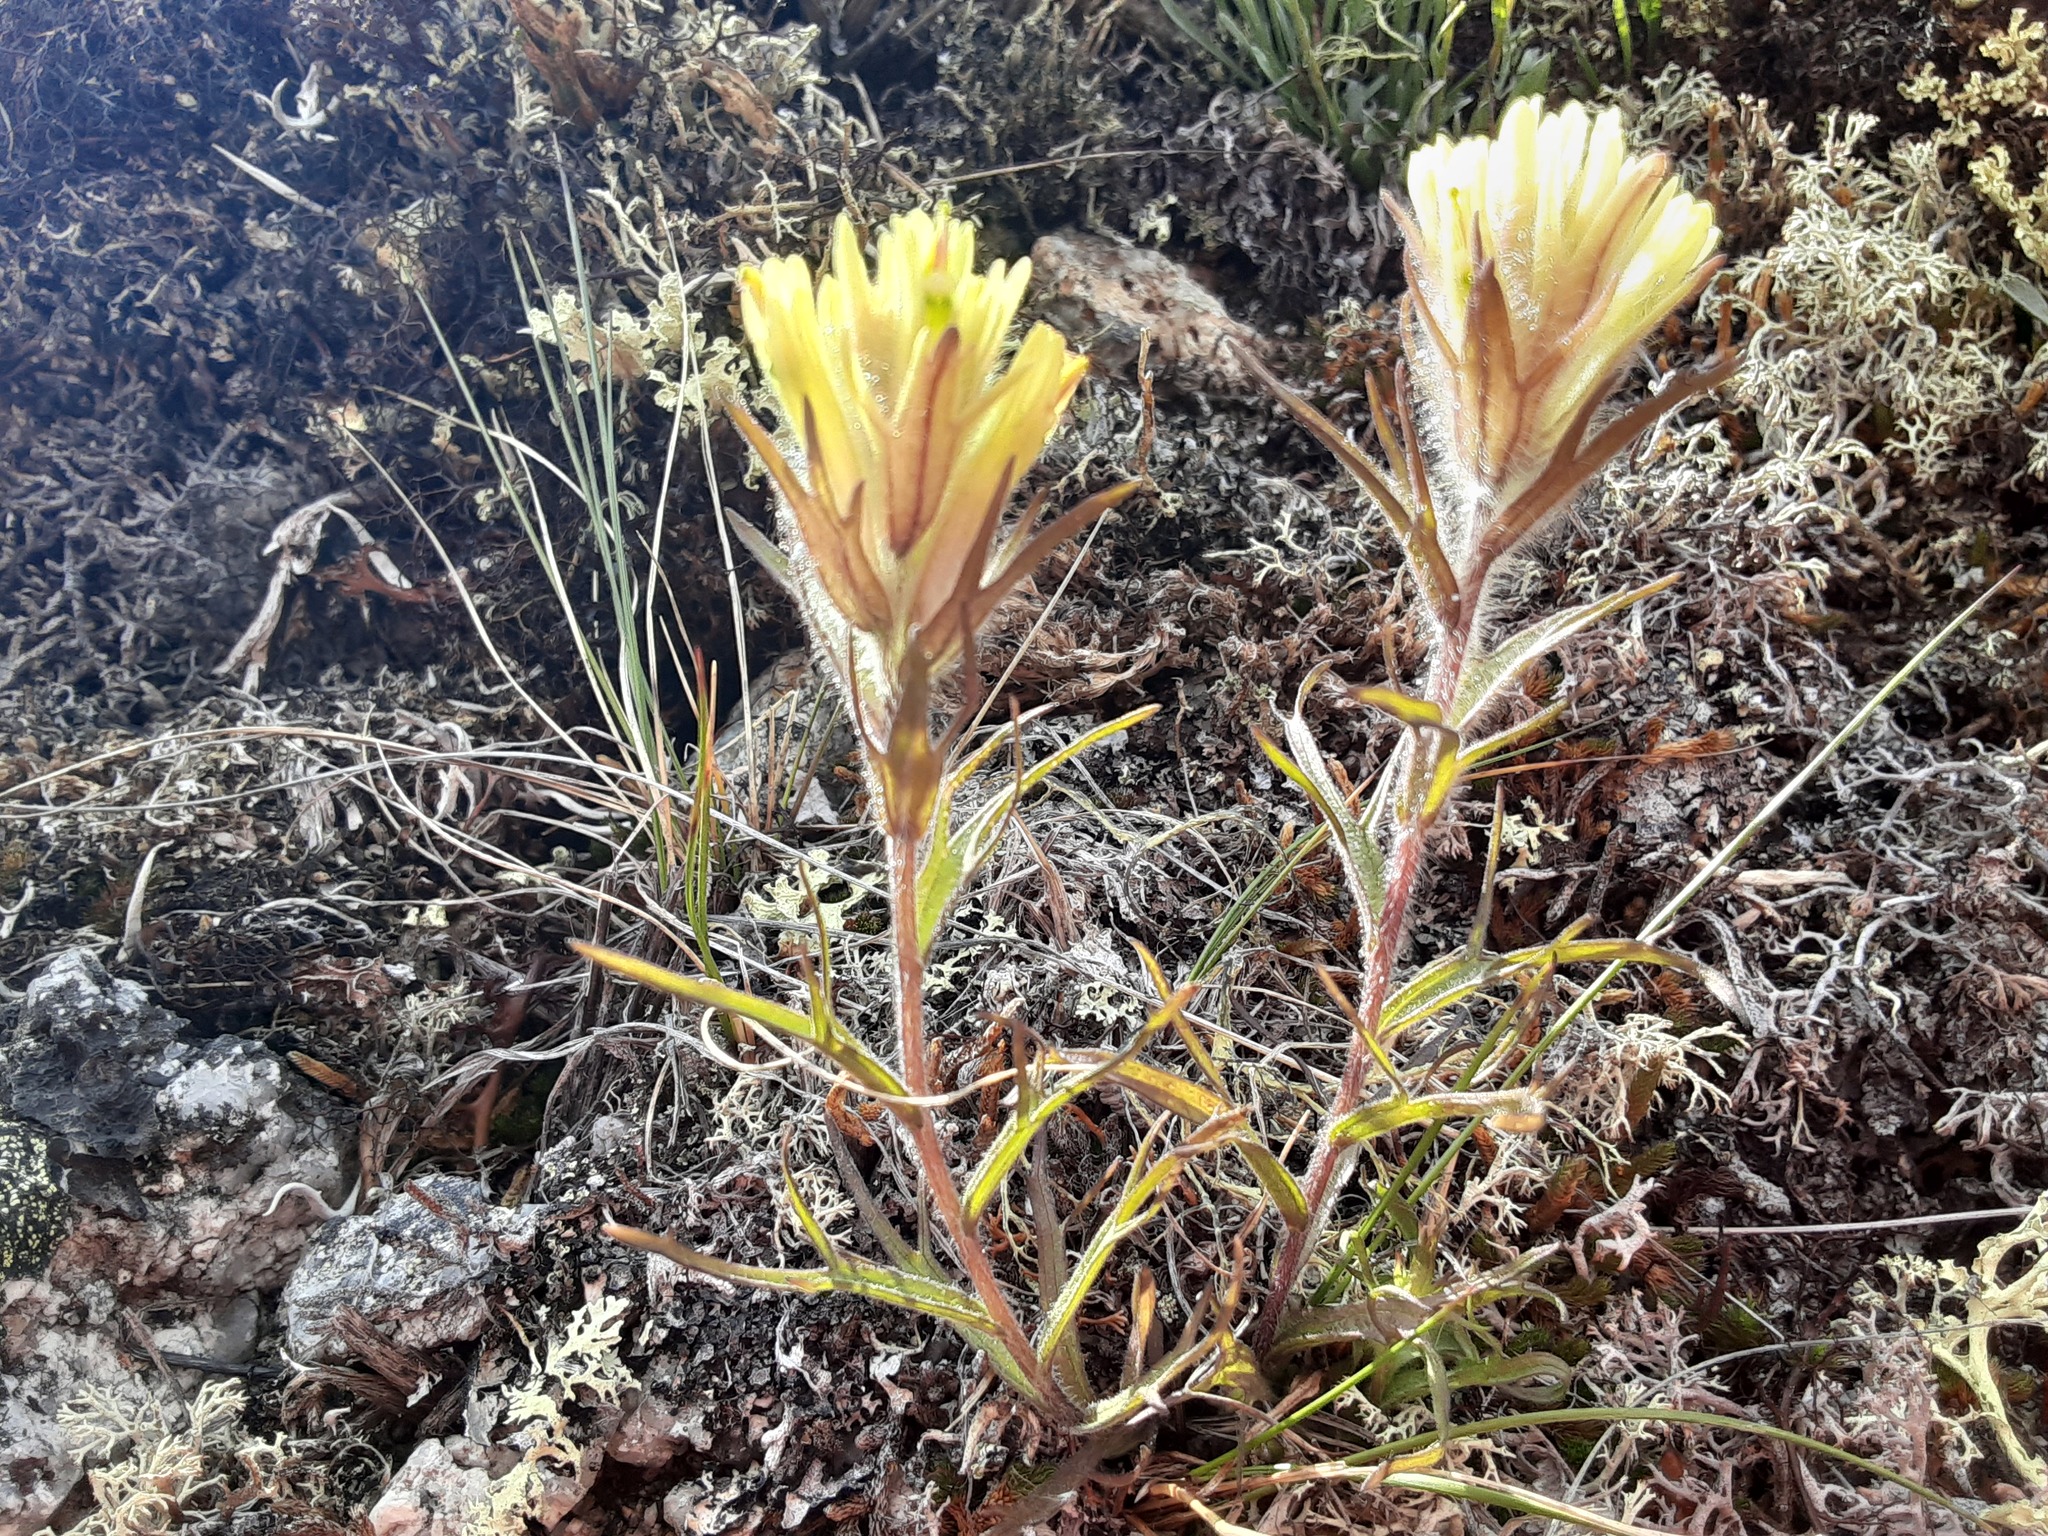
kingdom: Plantae
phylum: Tracheophyta
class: Magnoliopsida
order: Lamiales
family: Orobanchaceae
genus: Castilleja
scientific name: Castilleja hyperborea
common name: Northern paintbrush
